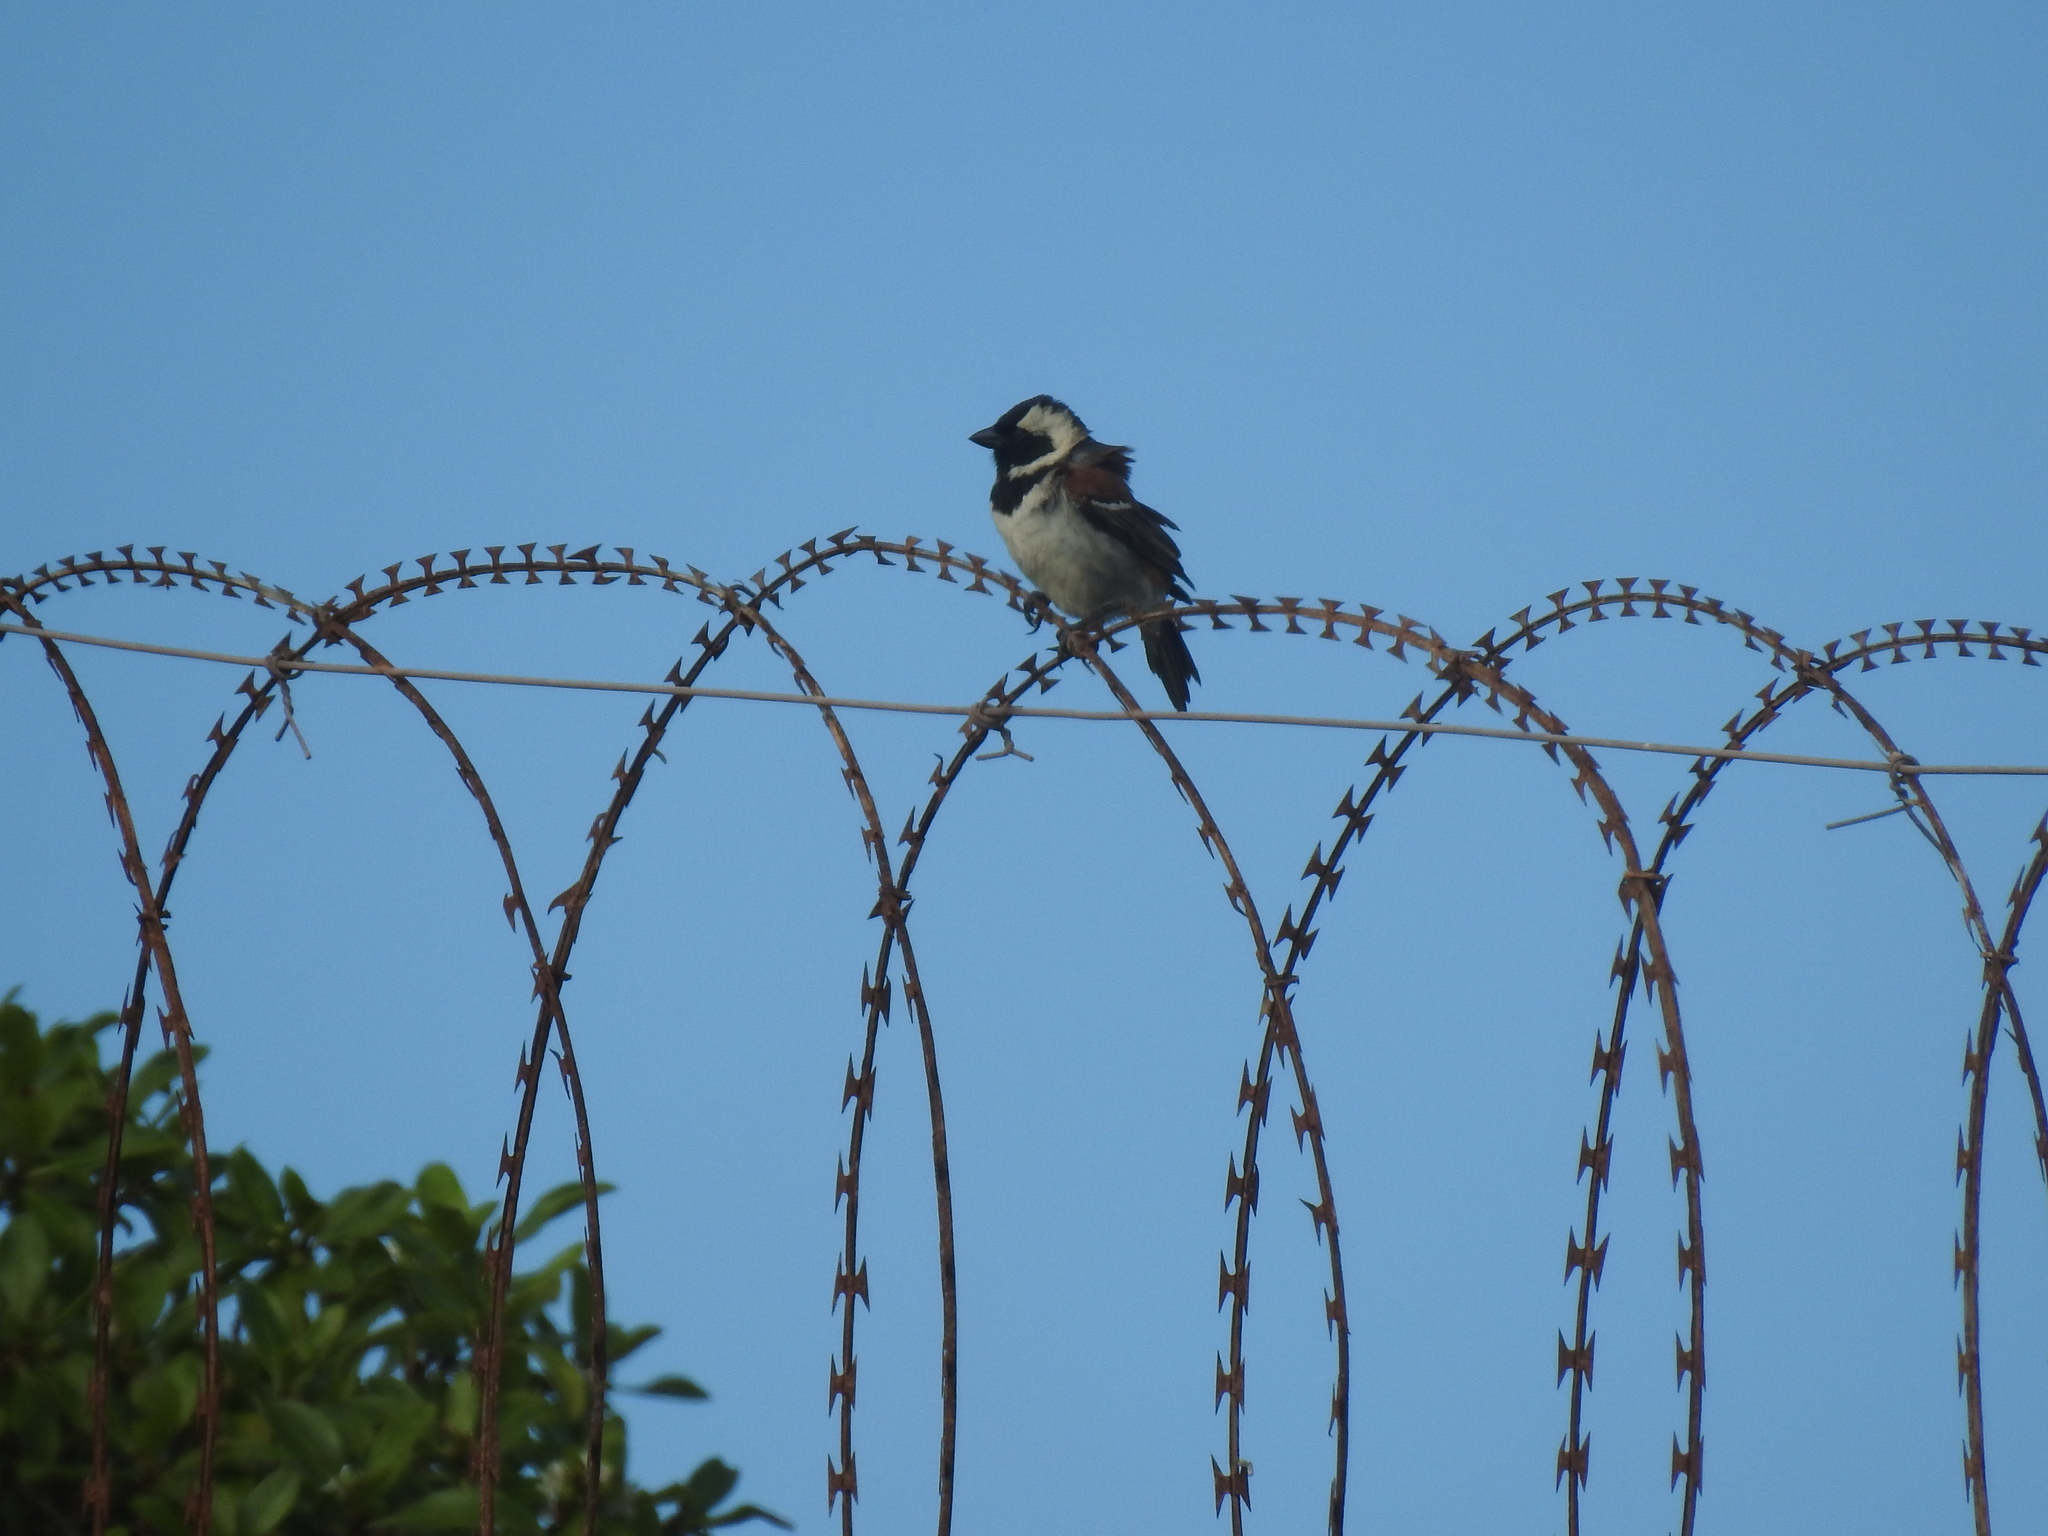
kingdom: Animalia
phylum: Chordata
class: Aves
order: Passeriformes
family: Passeridae
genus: Passer
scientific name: Passer melanurus
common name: Cape sparrow
